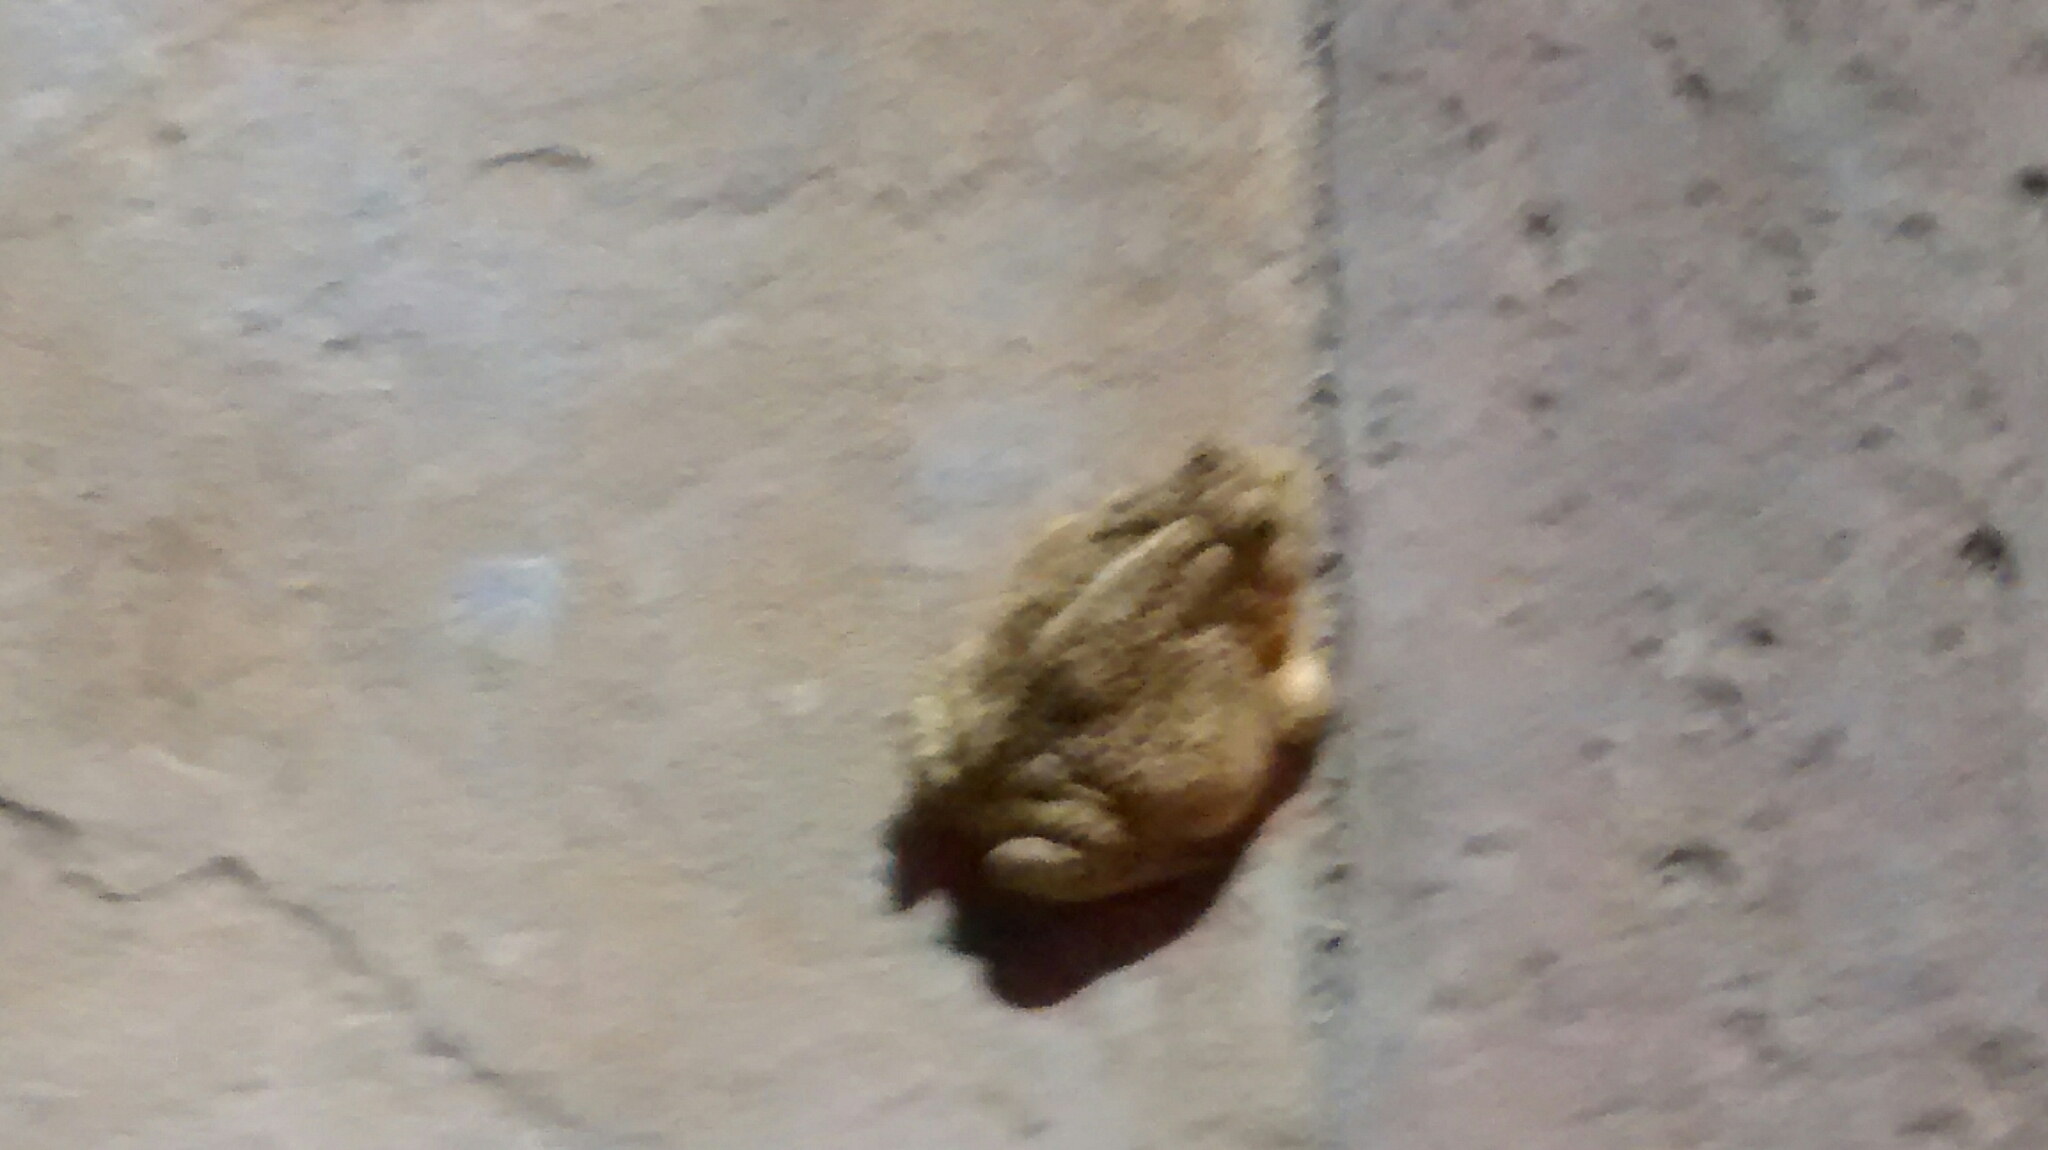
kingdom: Animalia
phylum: Chordata
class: Amphibia
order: Anura
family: Bufonidae
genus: Anaxyrus
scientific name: Anaxyrus woodhousii
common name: Woodhouse's toad
